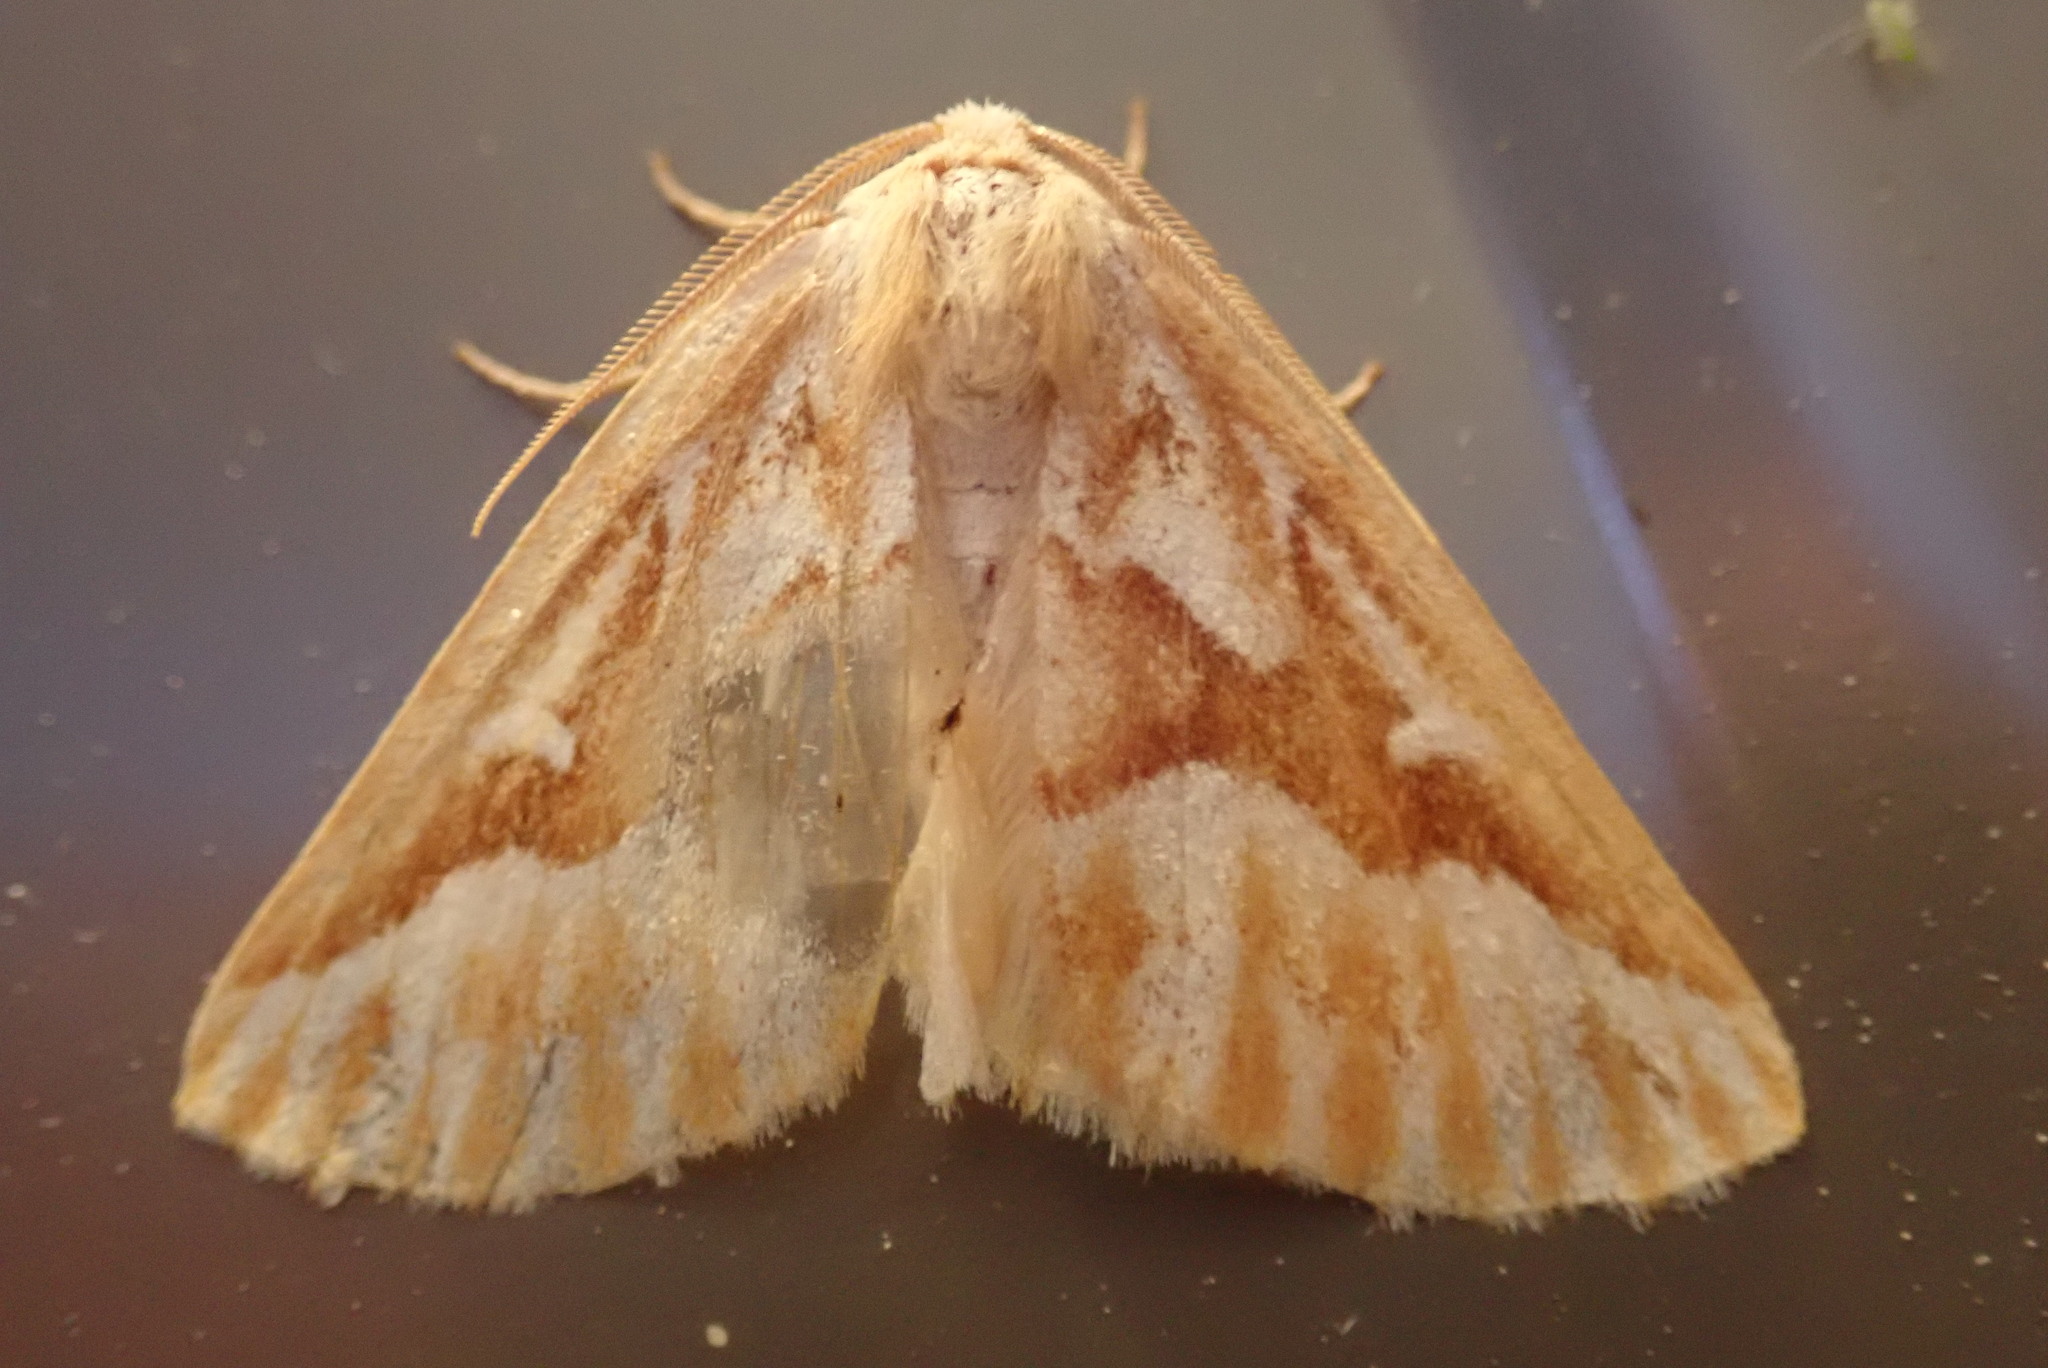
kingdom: Animalia
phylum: Arthropoda
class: Insecta
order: Lepidoptera
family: Geometridae
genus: Caripeta
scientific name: Caripeta piniata
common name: Northern pine looper moth
